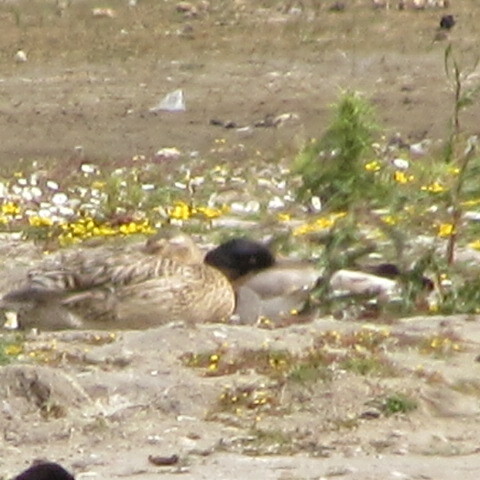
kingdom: Animalia
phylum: Chordata
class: Aves
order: Anseriformes
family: Anatidae
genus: Anas
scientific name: Anas platyrhynchos
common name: Mallard
